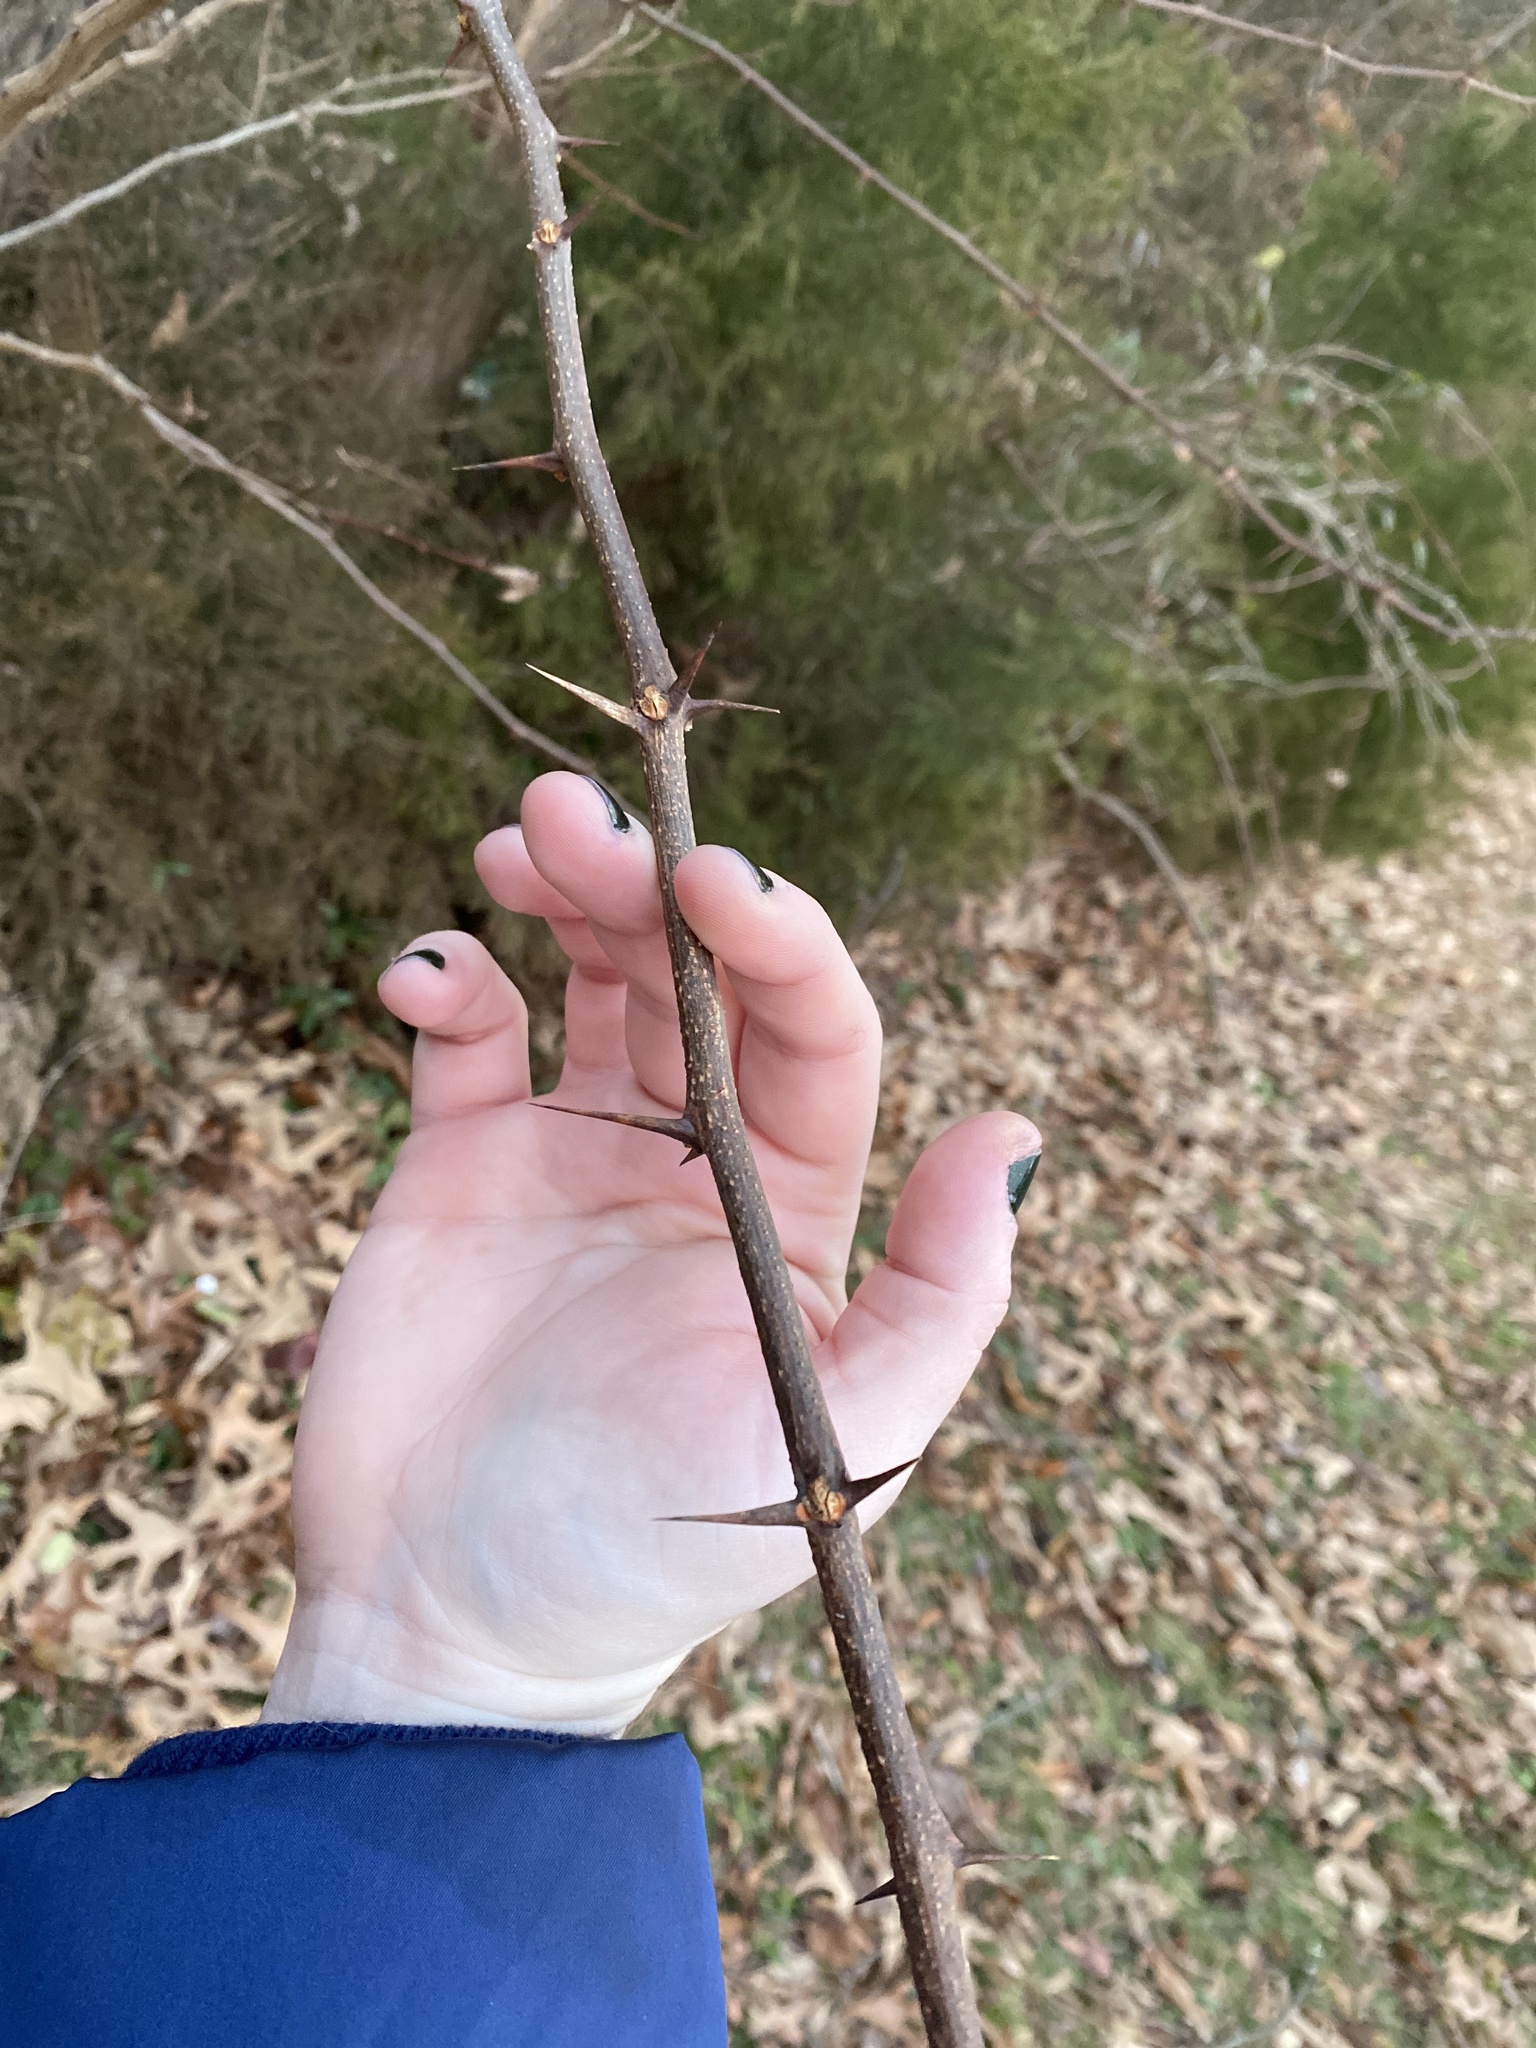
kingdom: Plantae
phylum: Tracheophyta
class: Magnoliopsida
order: Fabales
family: Fabaceae
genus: Robinia
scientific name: Robinia pseudoacacia
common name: Black locust
